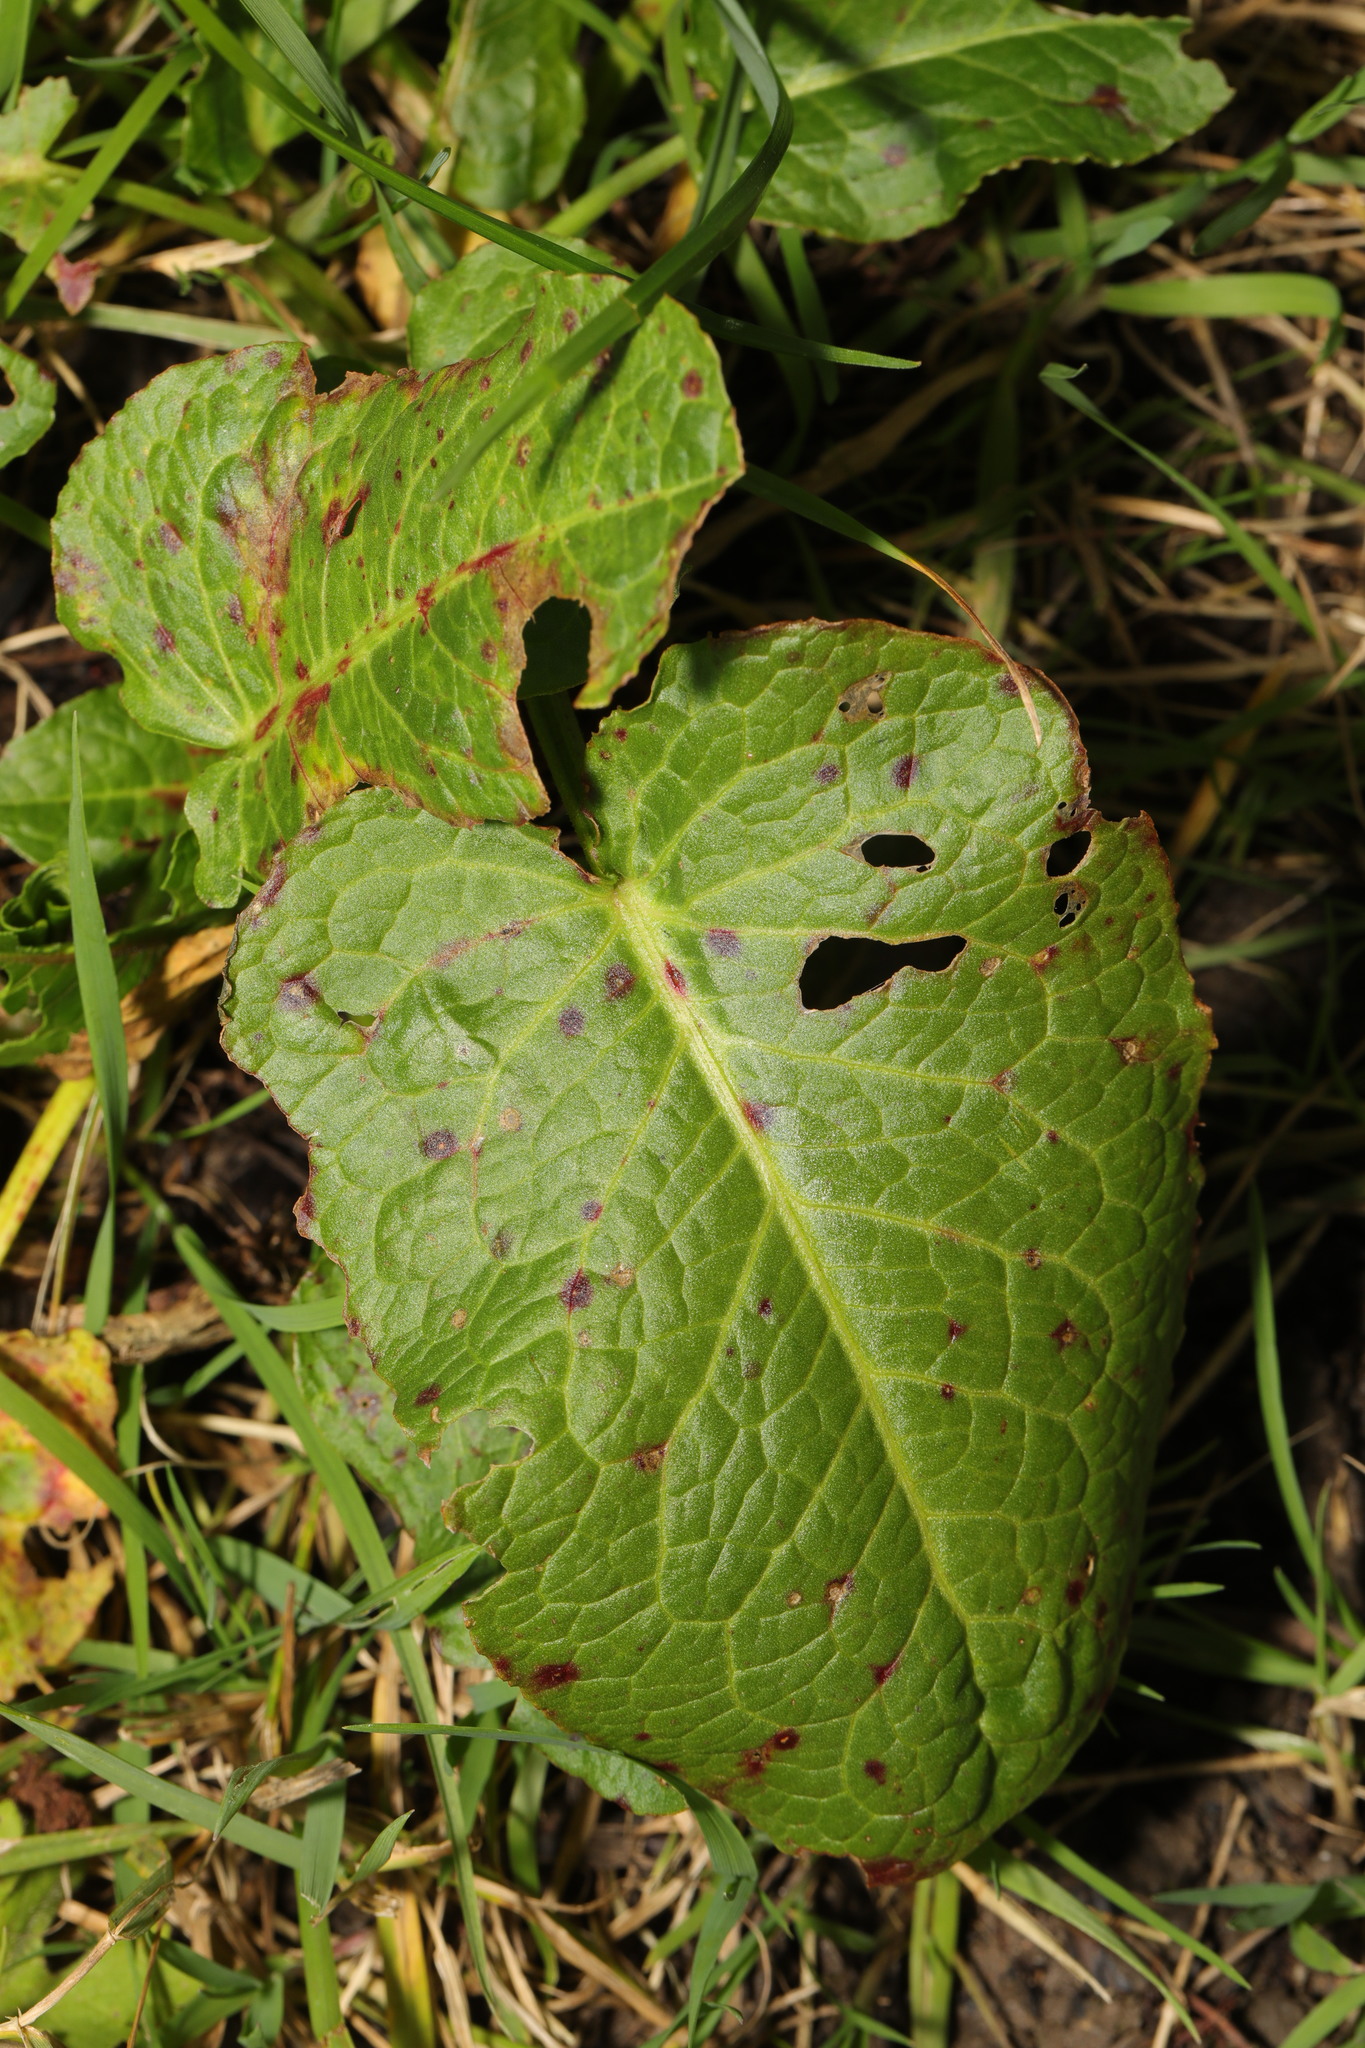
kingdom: Plantae
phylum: Tracheophyta
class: Magnoliopsida
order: Caryophyllales
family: Polygonaceae
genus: Rumex
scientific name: Rumex obtusifolius
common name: Bitter dock
